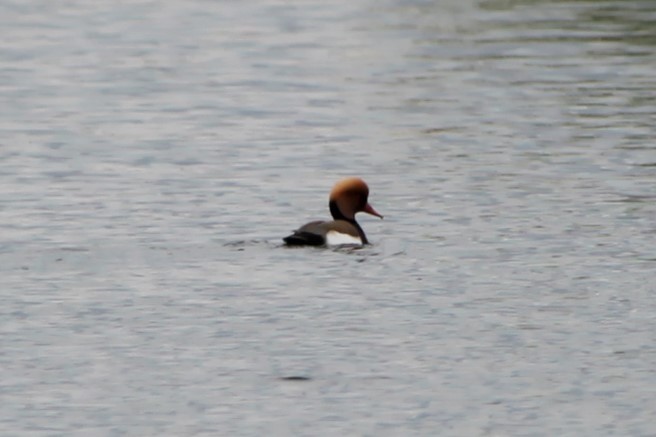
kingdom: Animalia
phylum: Chordata
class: Aves
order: Anseriformes
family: Anatidae
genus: Netta
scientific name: Netta rufina
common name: Red-crested pochard
